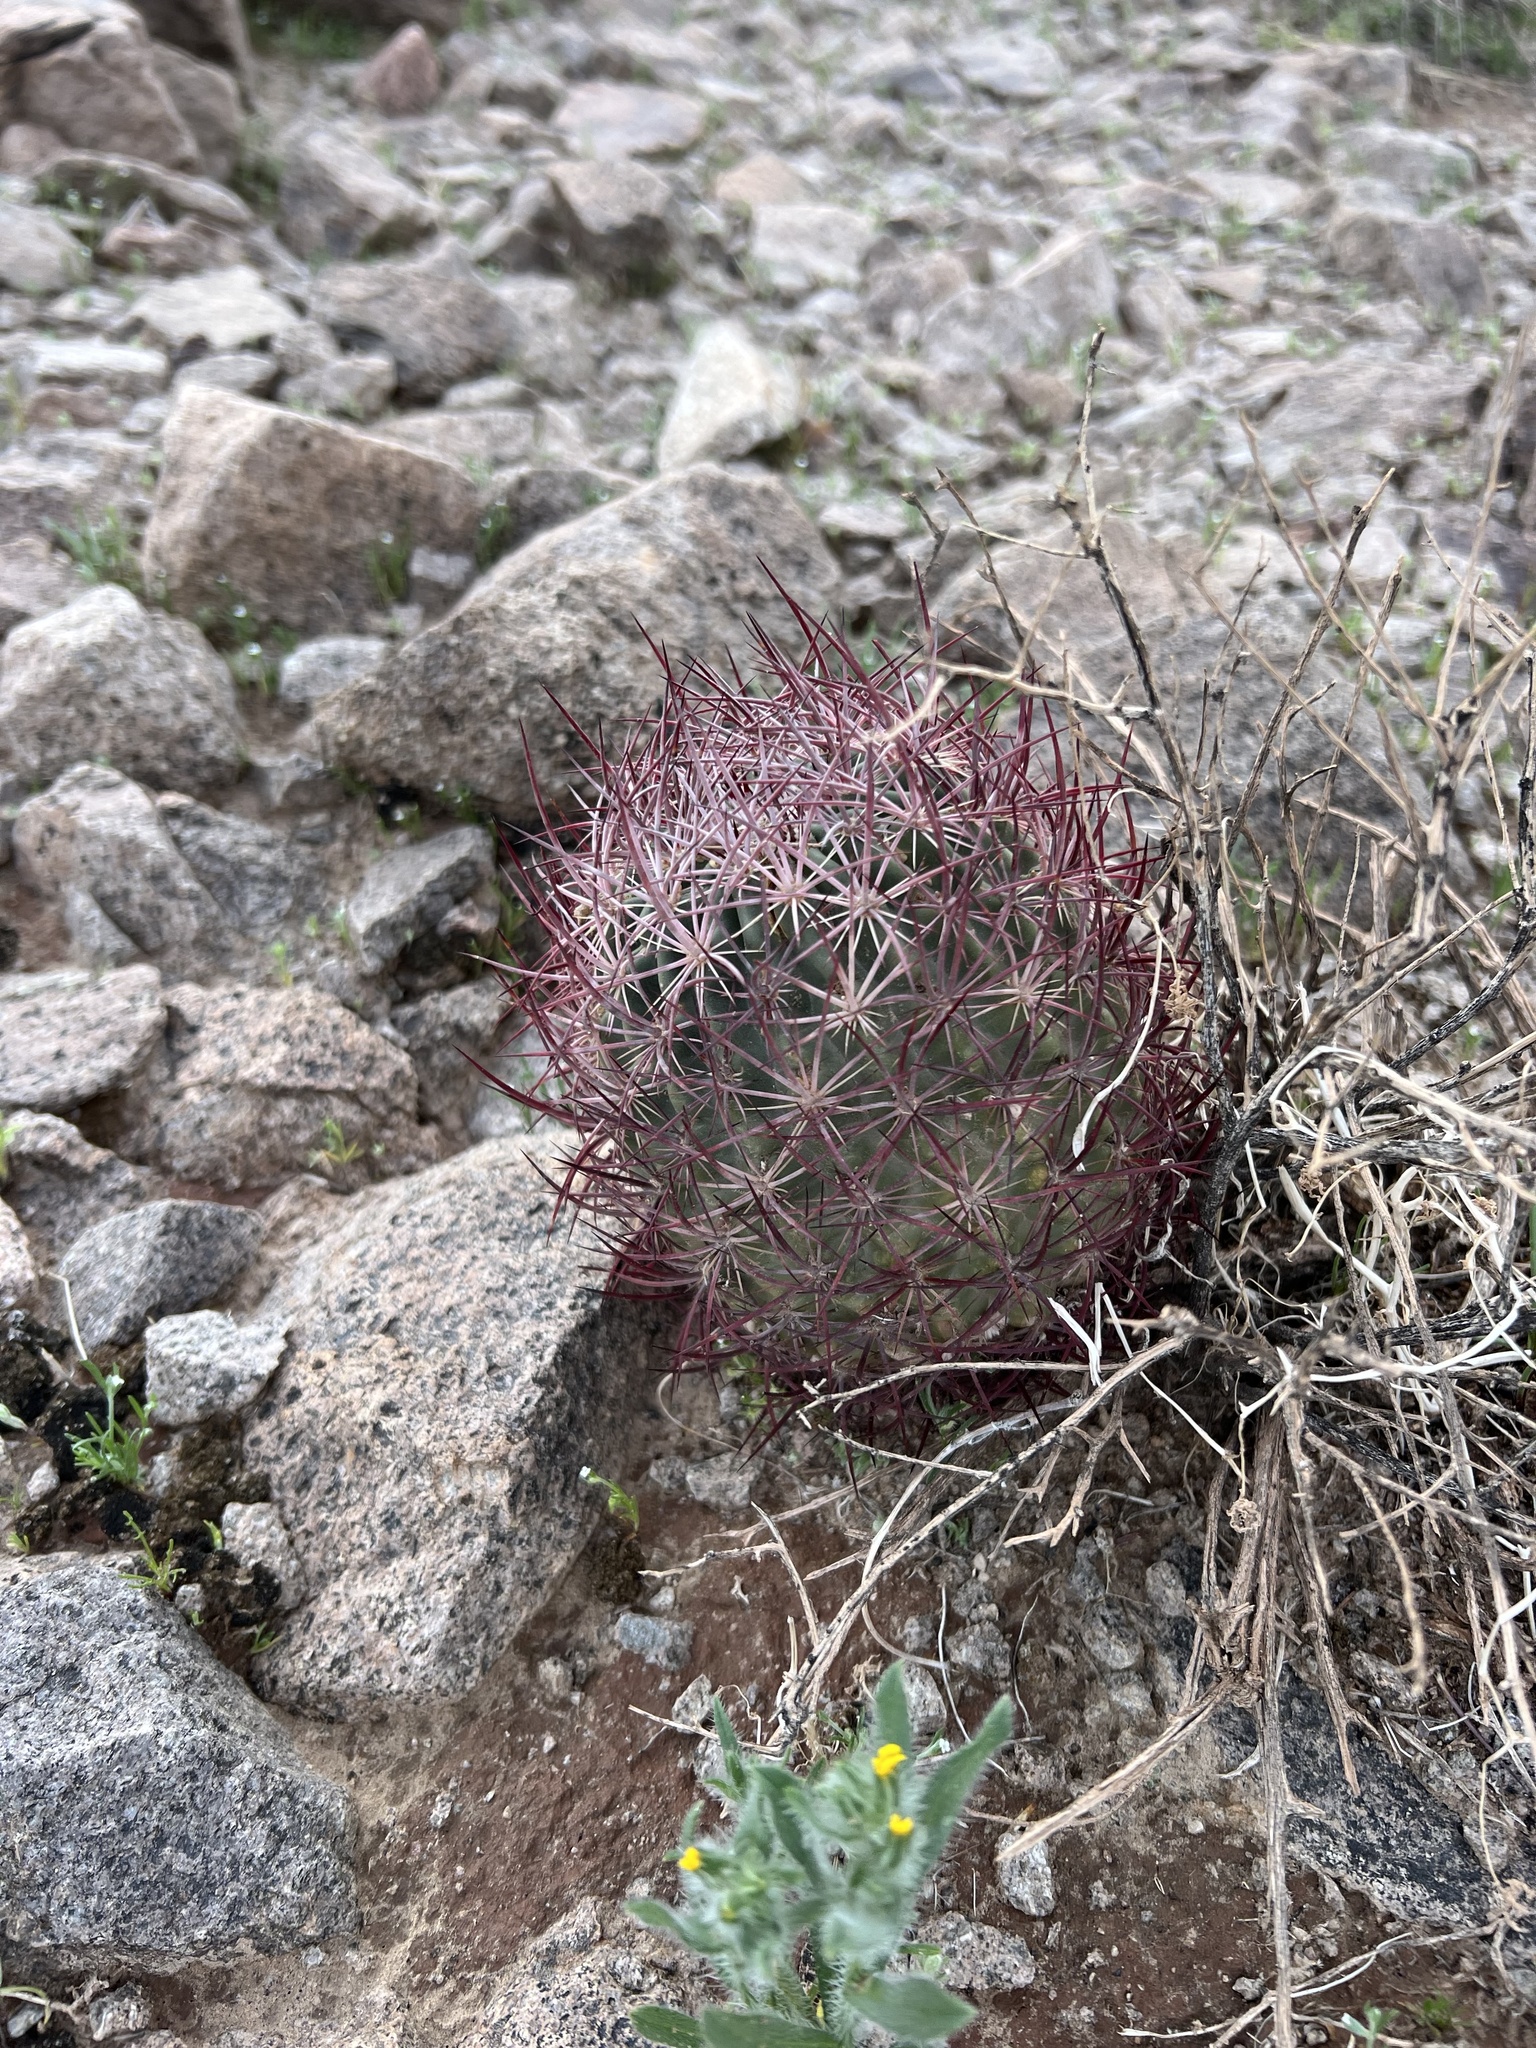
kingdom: Plantae
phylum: Tracheophyta
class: Magnoliopsida
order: Caryophyllales
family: Cactaceae
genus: Sclerocactus
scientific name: Sclerocactus johnsonii
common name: Eight-spine fishhook cactus
